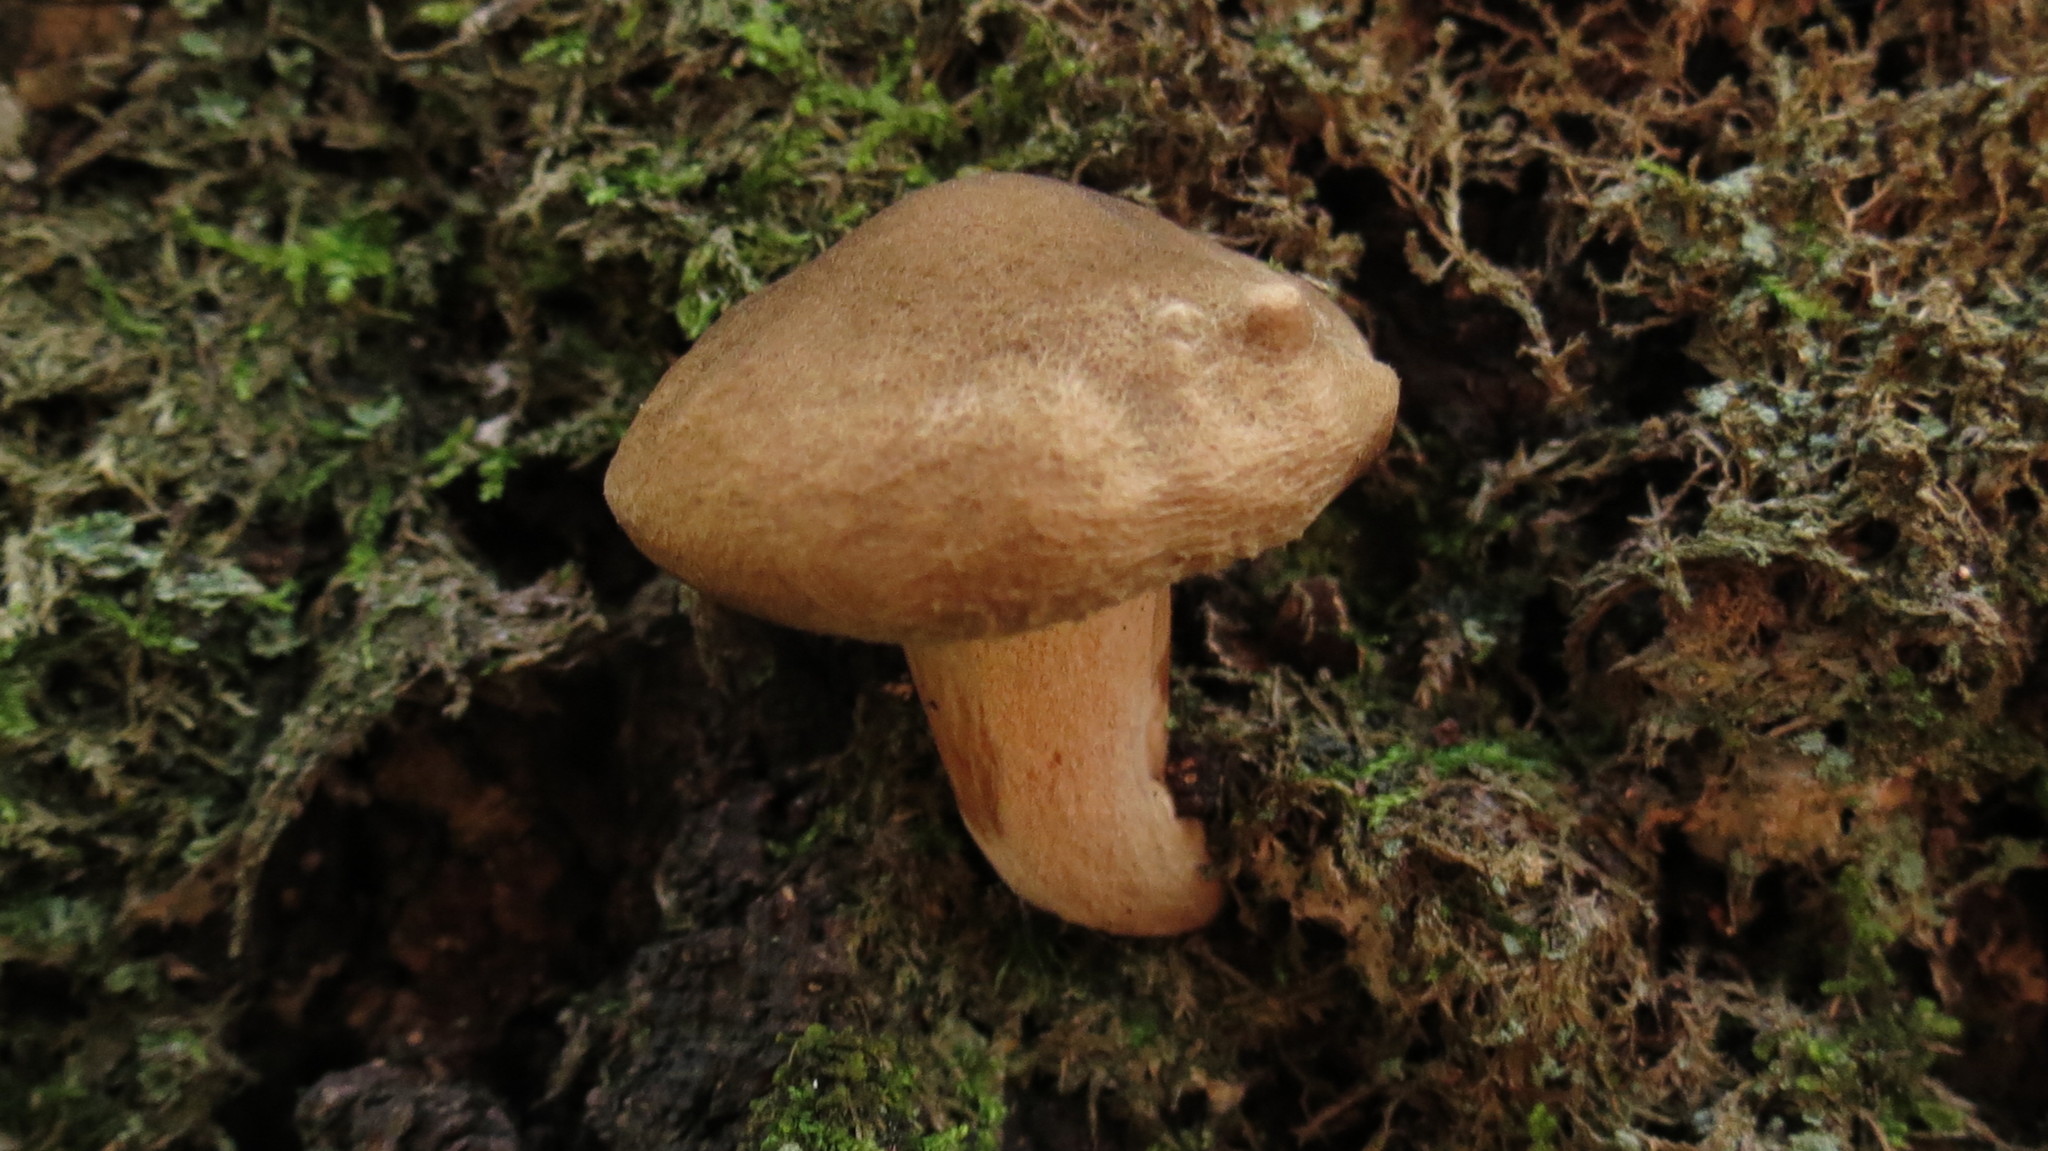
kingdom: Fungi
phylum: Basidiomycota
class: Agaricomycetes
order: Boletales
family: Paxillaceae
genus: Paxillus
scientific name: Paxillus involutus
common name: Brown roll rim
